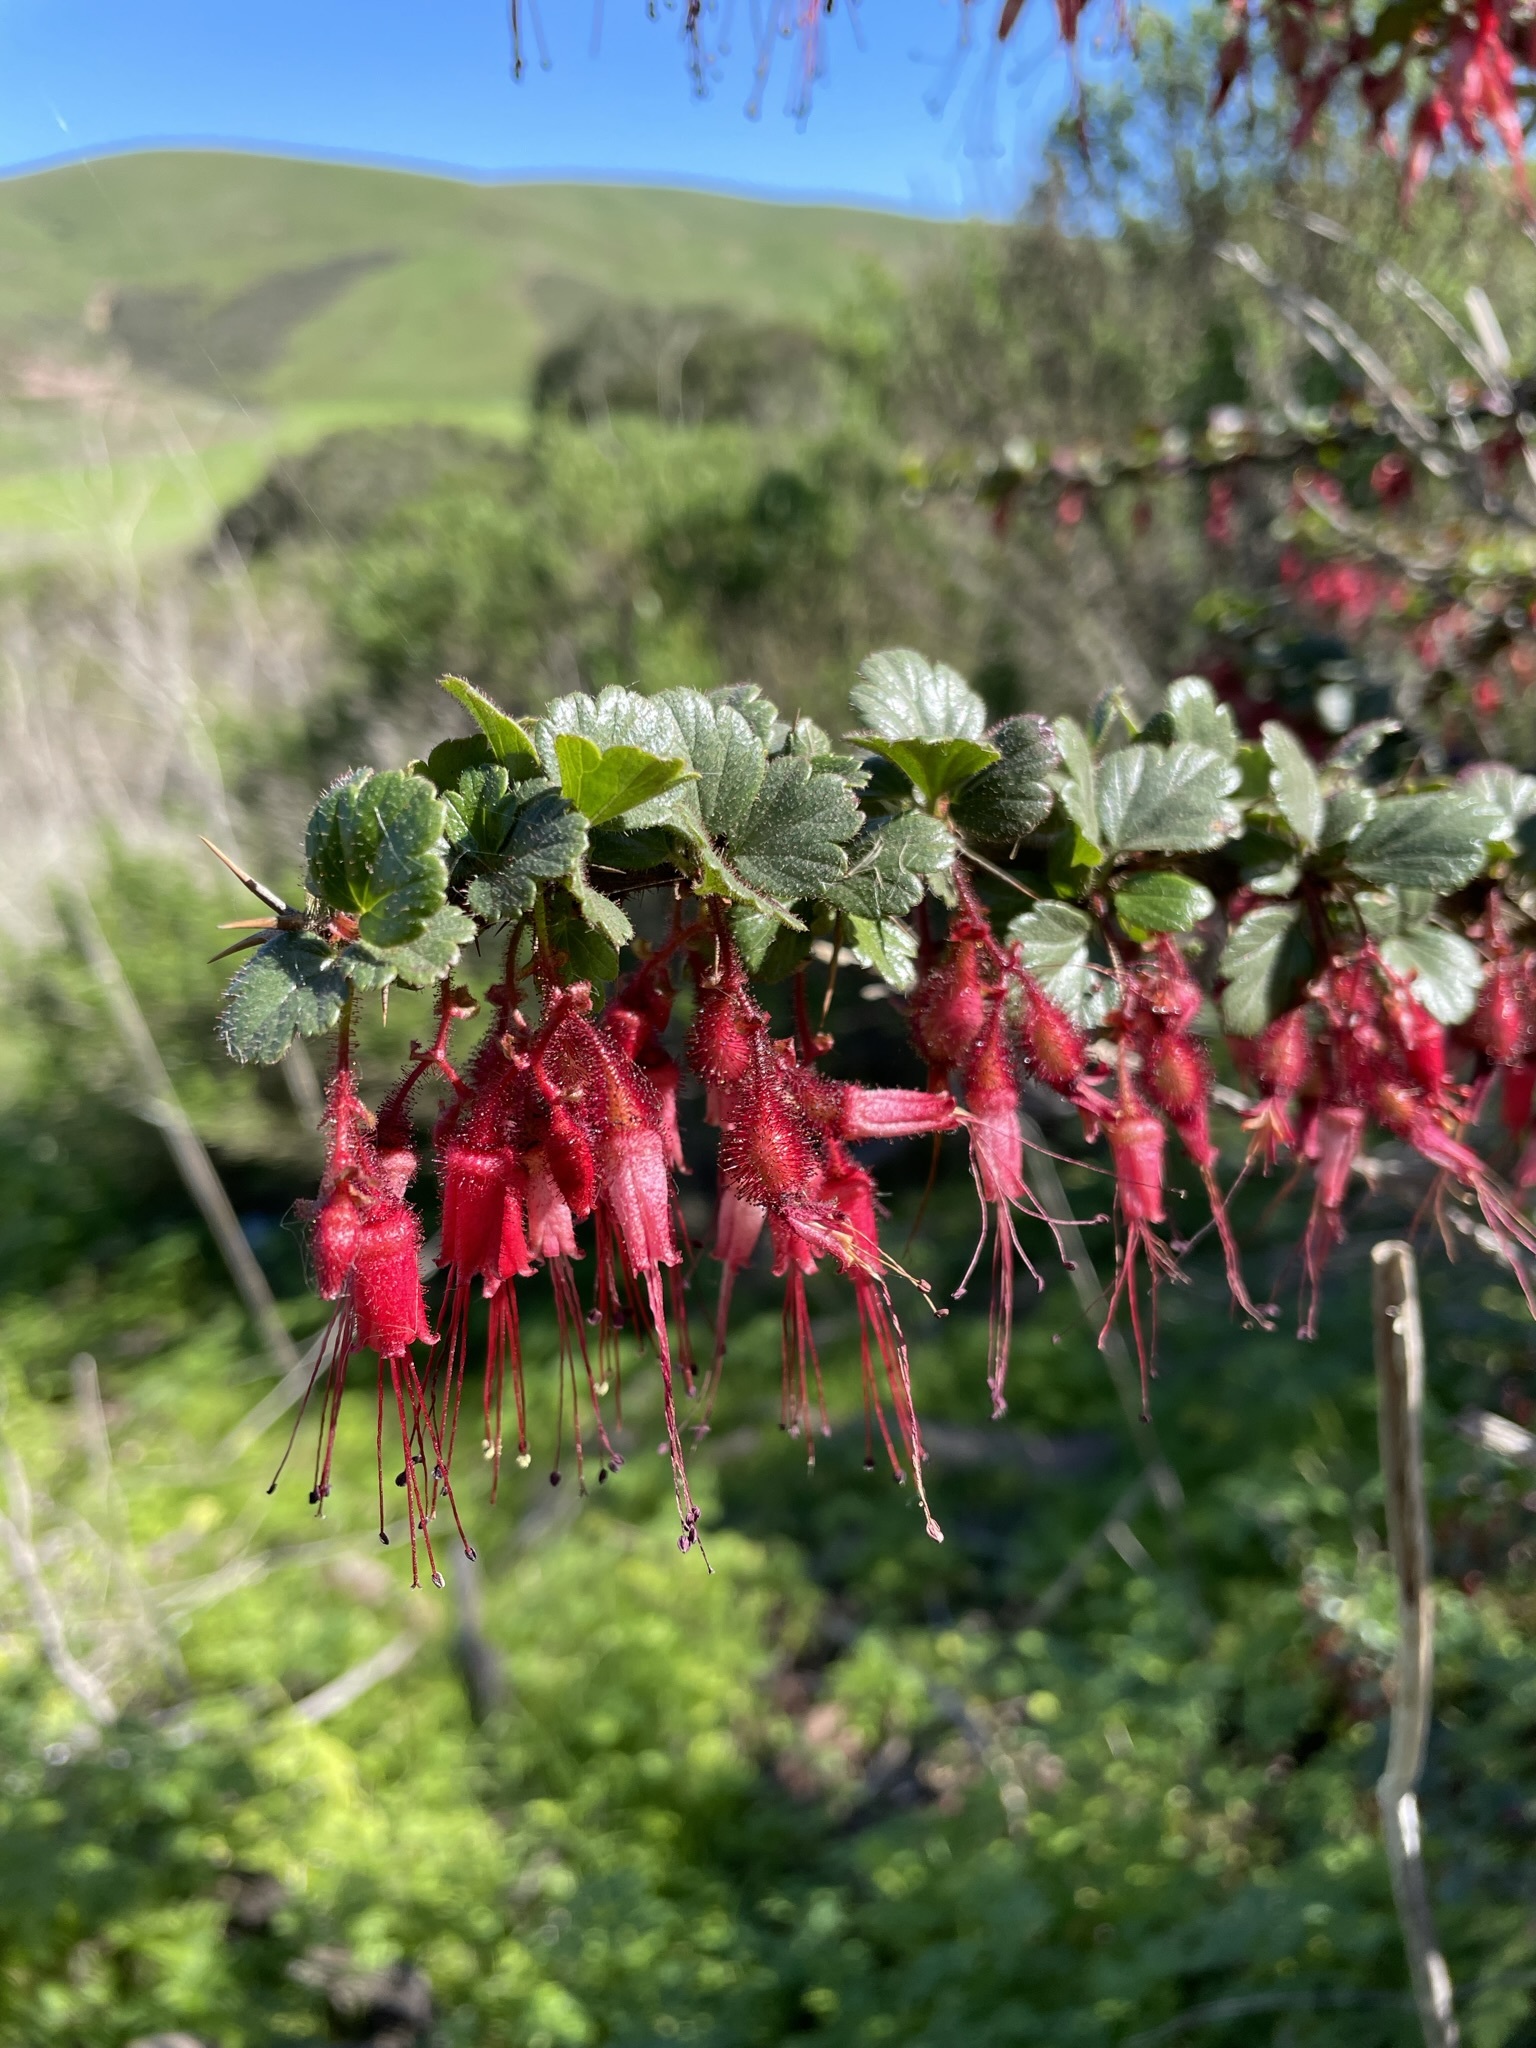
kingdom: Plantae
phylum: Tracheophyta
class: Magnoliopsida
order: Saxifragales
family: Grossulariaceae
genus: Ribes
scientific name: Ribes speciosum
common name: Fuchsia-flower gooseberry
